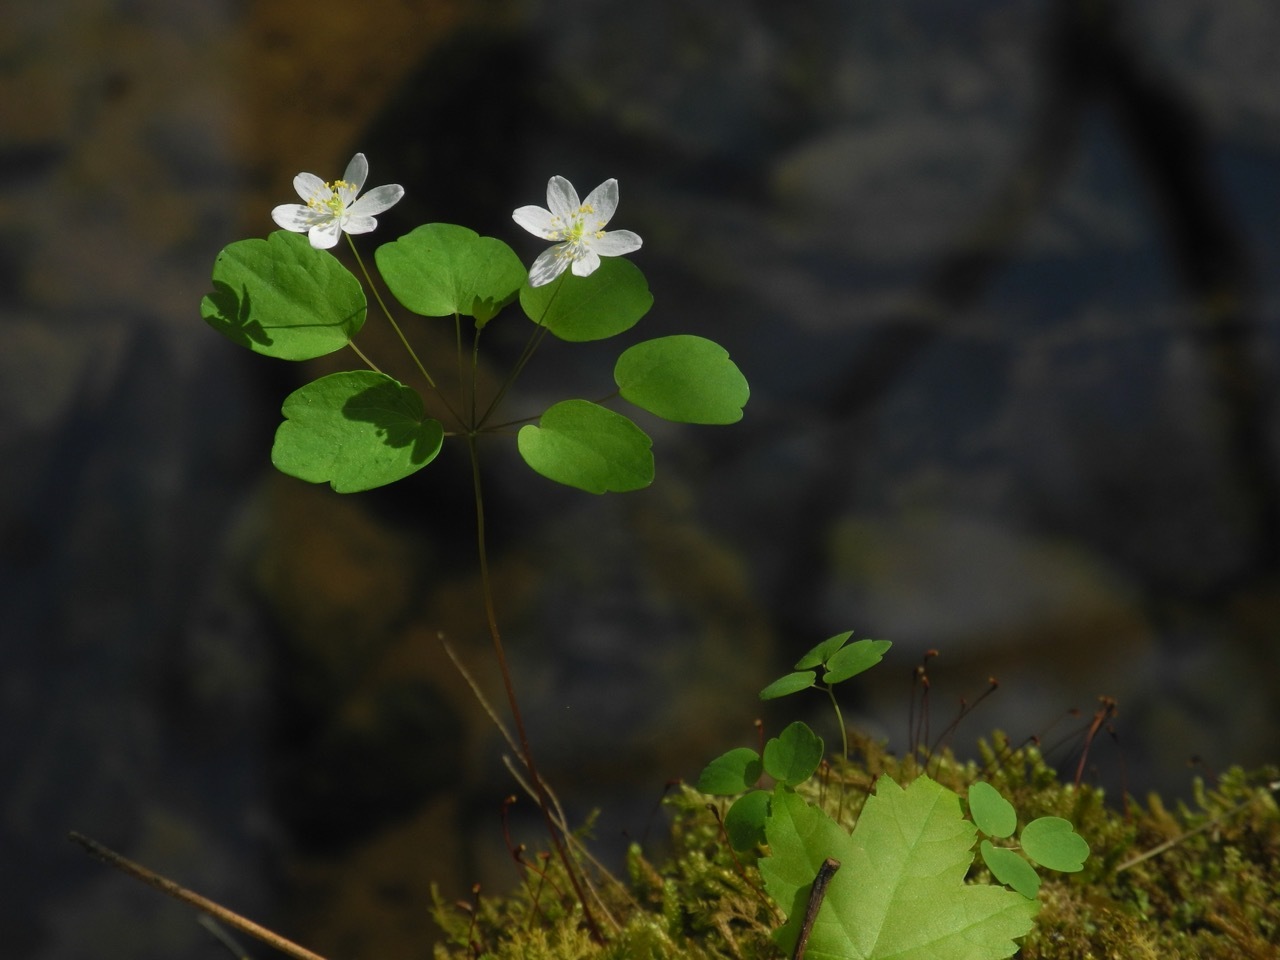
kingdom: Plantae
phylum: Tracheophyta
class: Magnoliopsida
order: Ranunculales
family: Ranunculaceae
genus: Thalictrum
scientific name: Thalictrum thalictroides
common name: Rue-anemone
